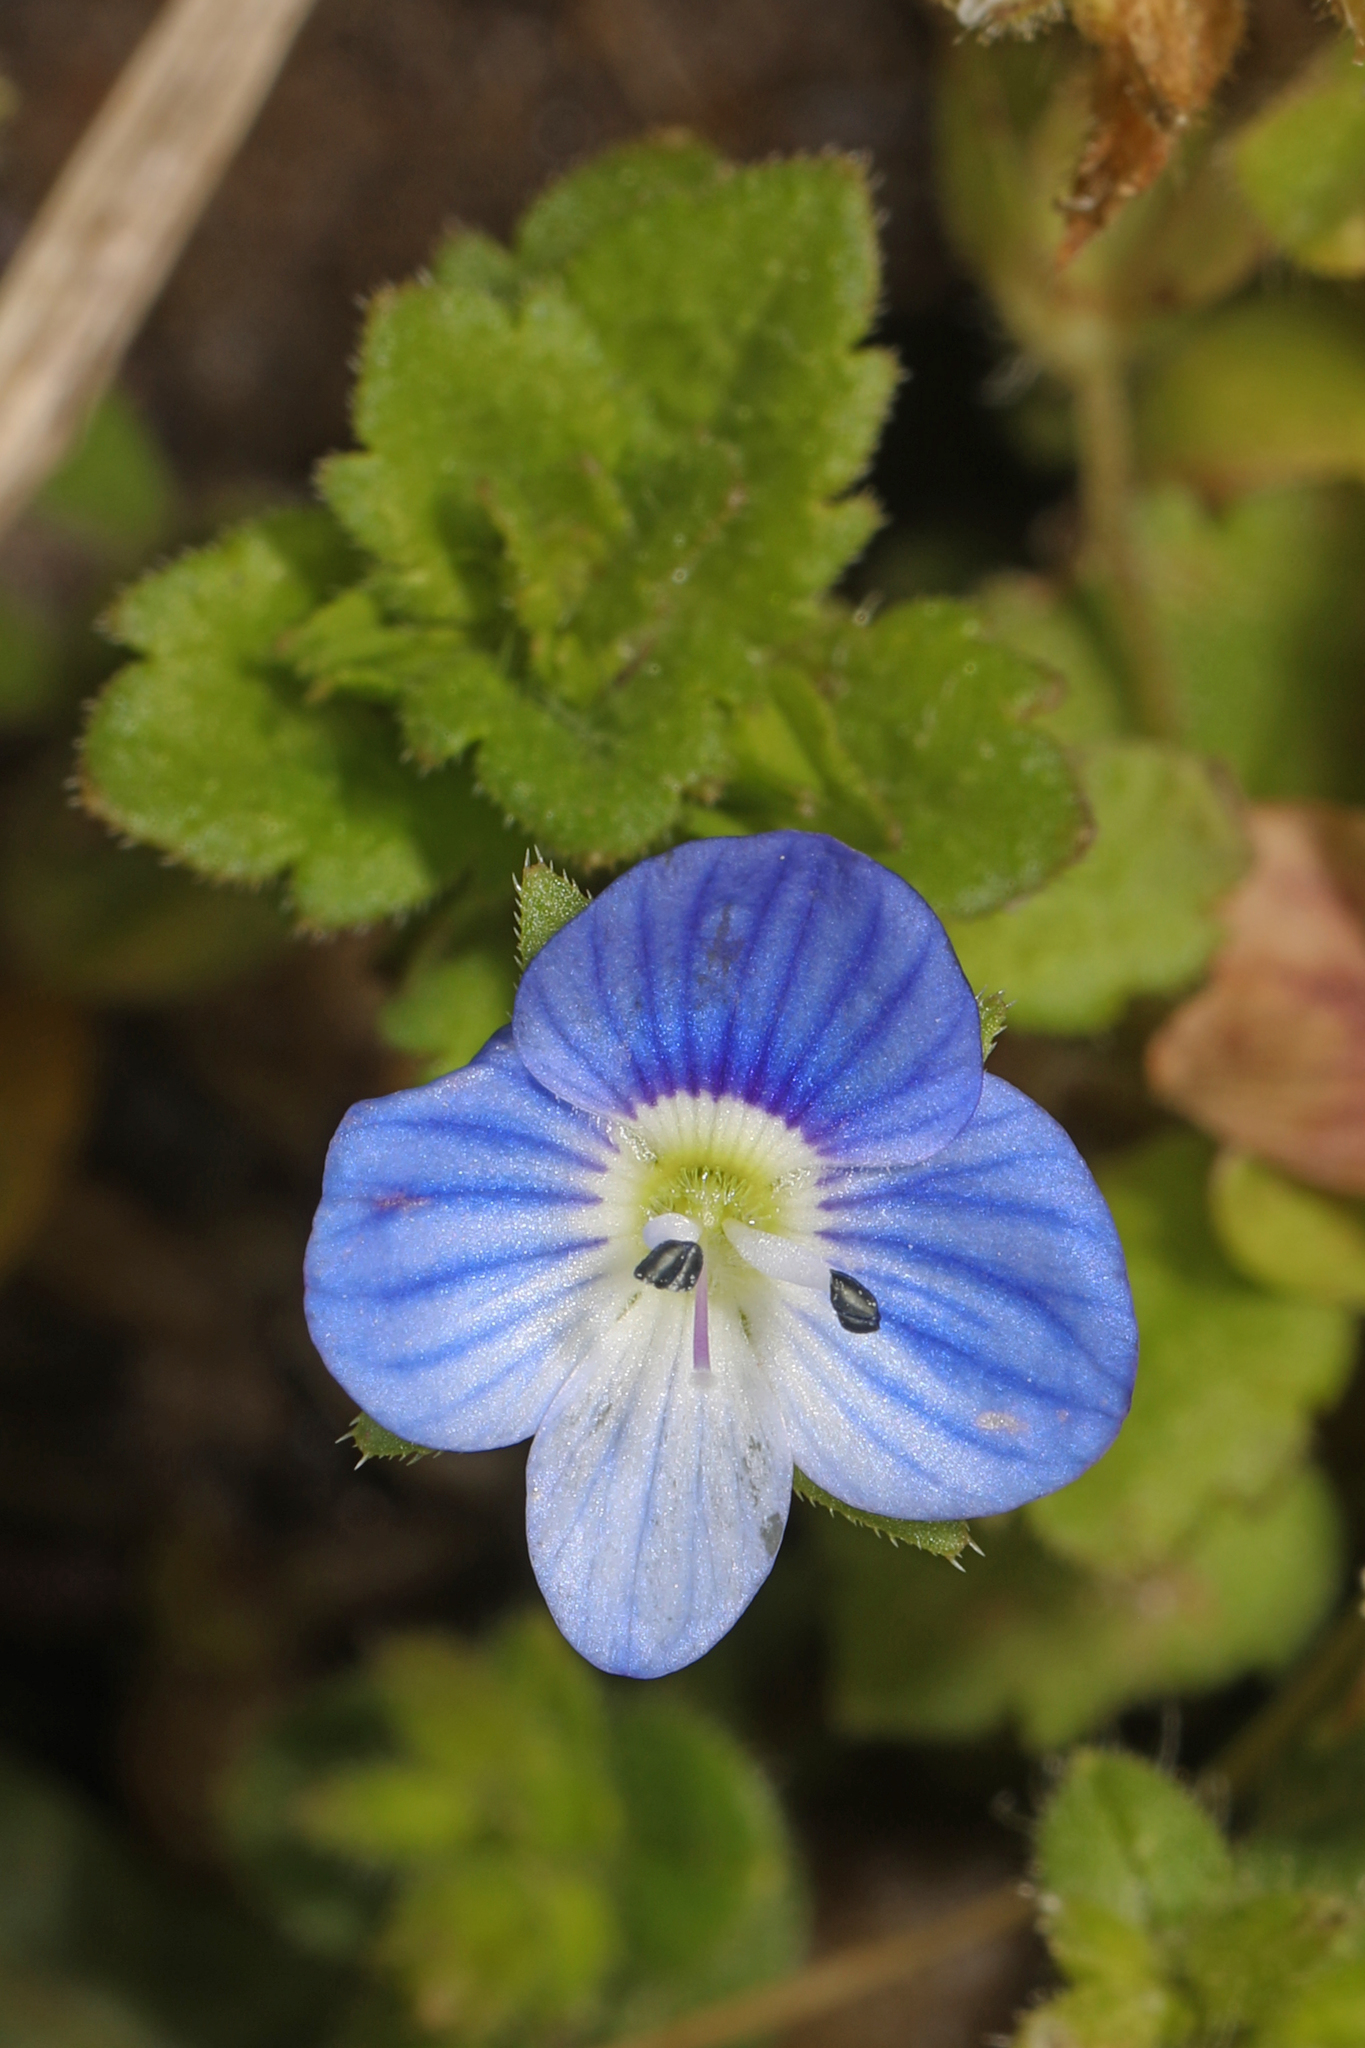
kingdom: Plantae
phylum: Tracheophyta
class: Magnoliopsida
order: Lamiales
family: Plantaginaceae
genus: Veronica
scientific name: Veronica persica
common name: Common field-speedwell
